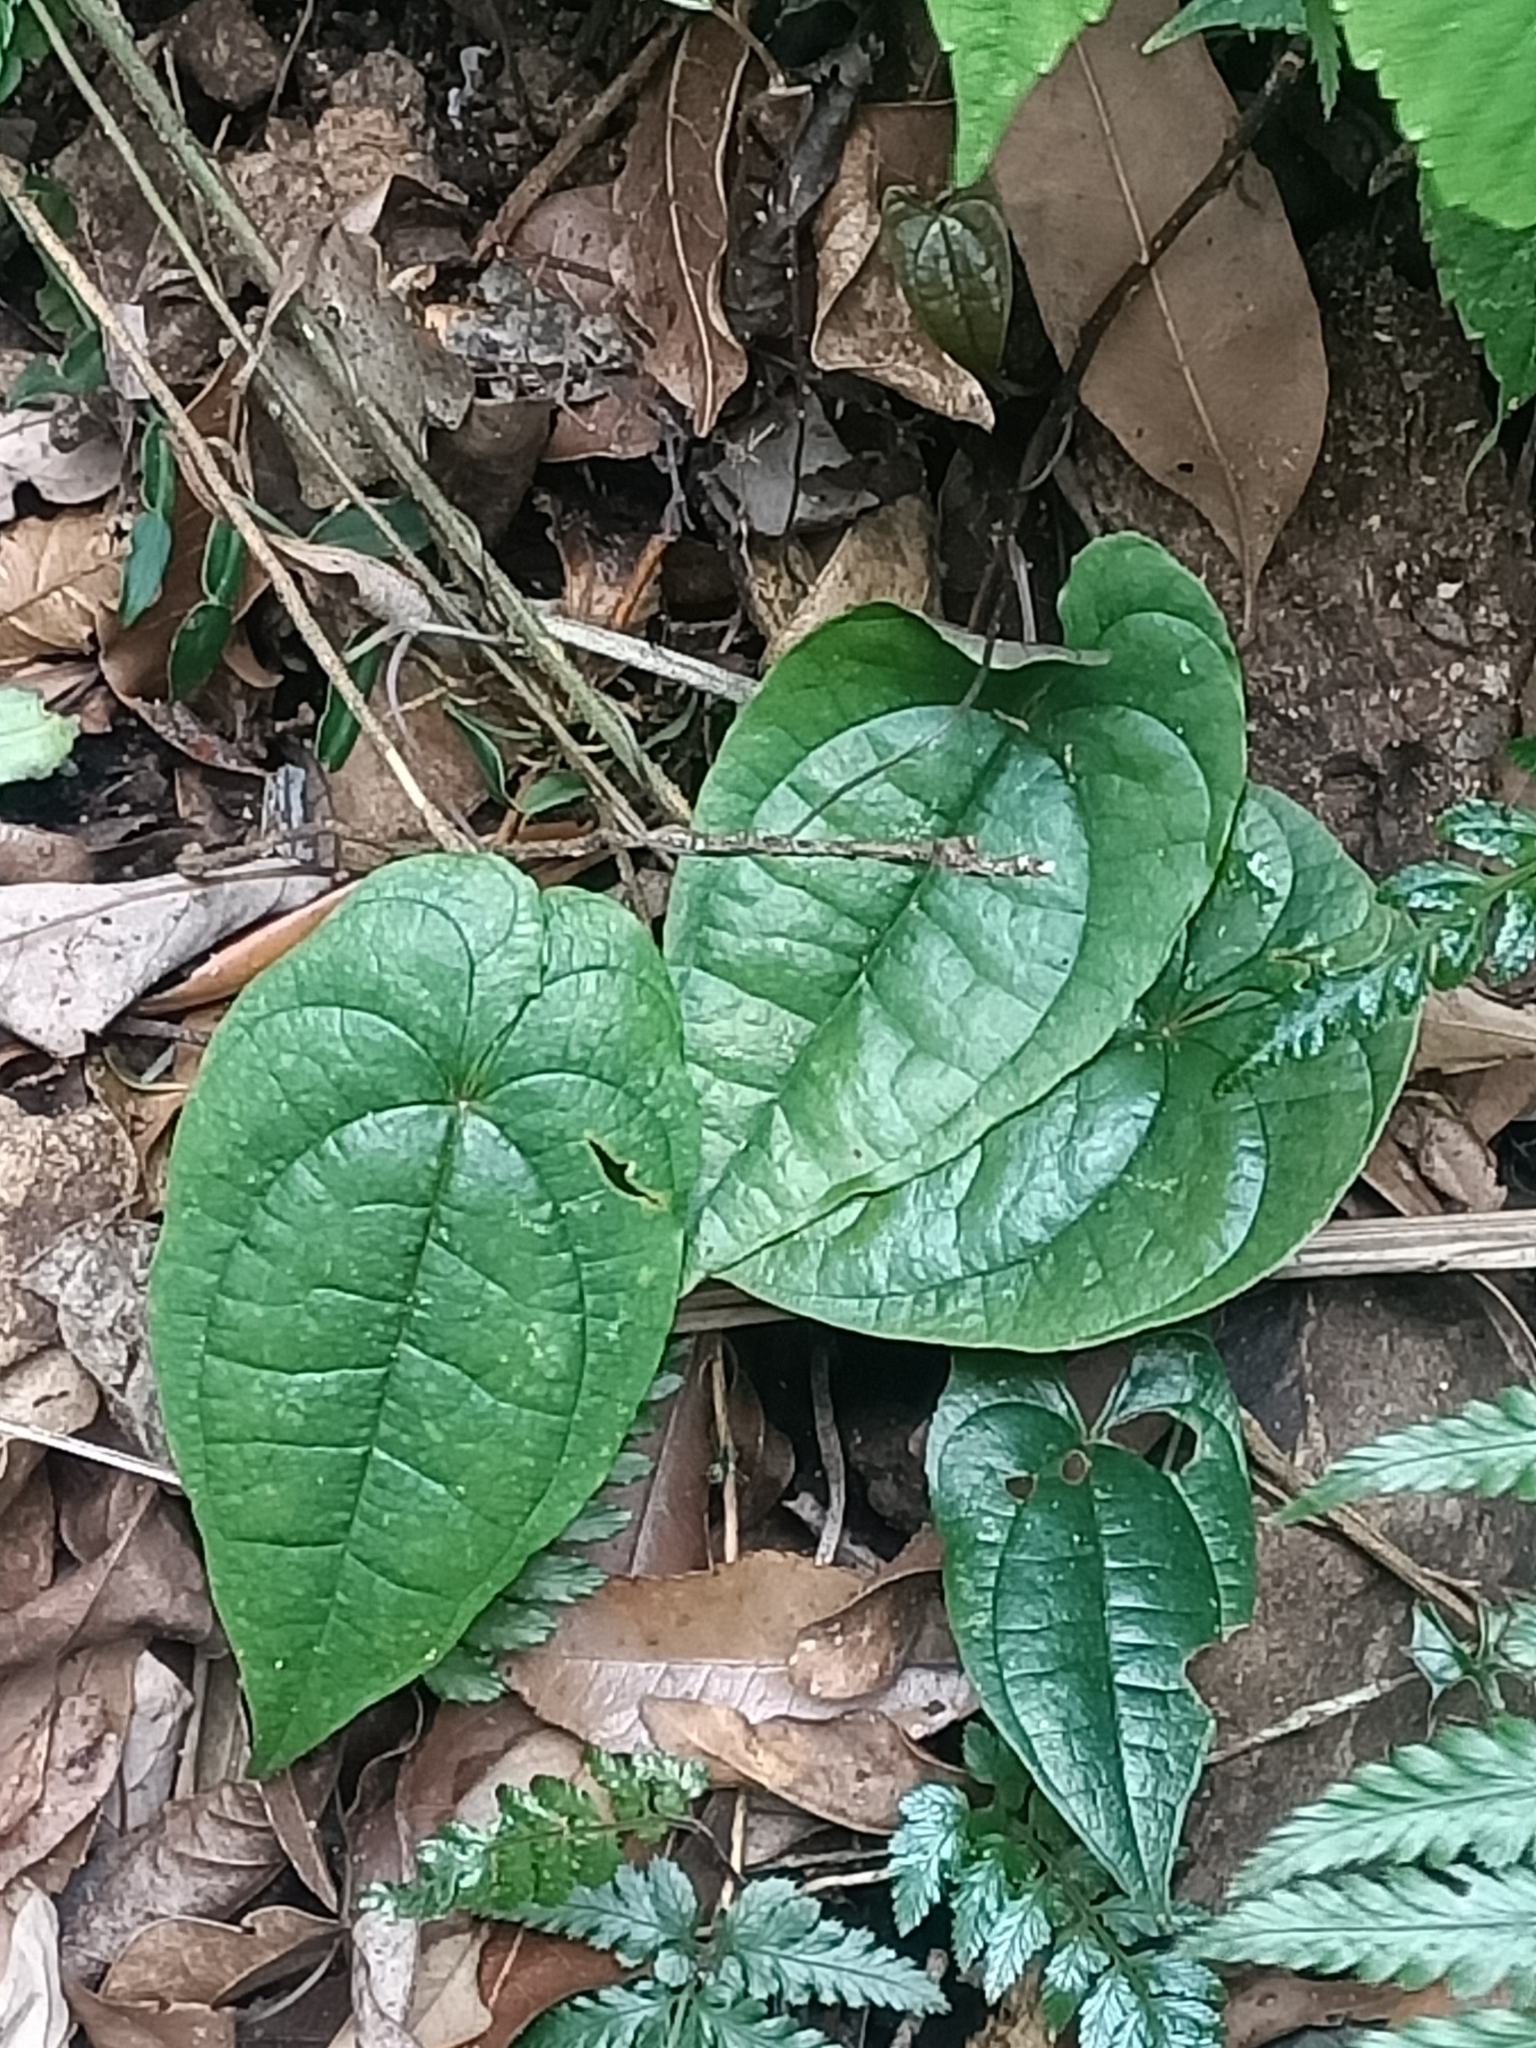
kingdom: Plantae
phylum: Tracheophyta
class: Liliopsida
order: Dioscoreales
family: Dioscoreaceae
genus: Dioscorea
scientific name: Dioscorea transversa
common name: Long yam
